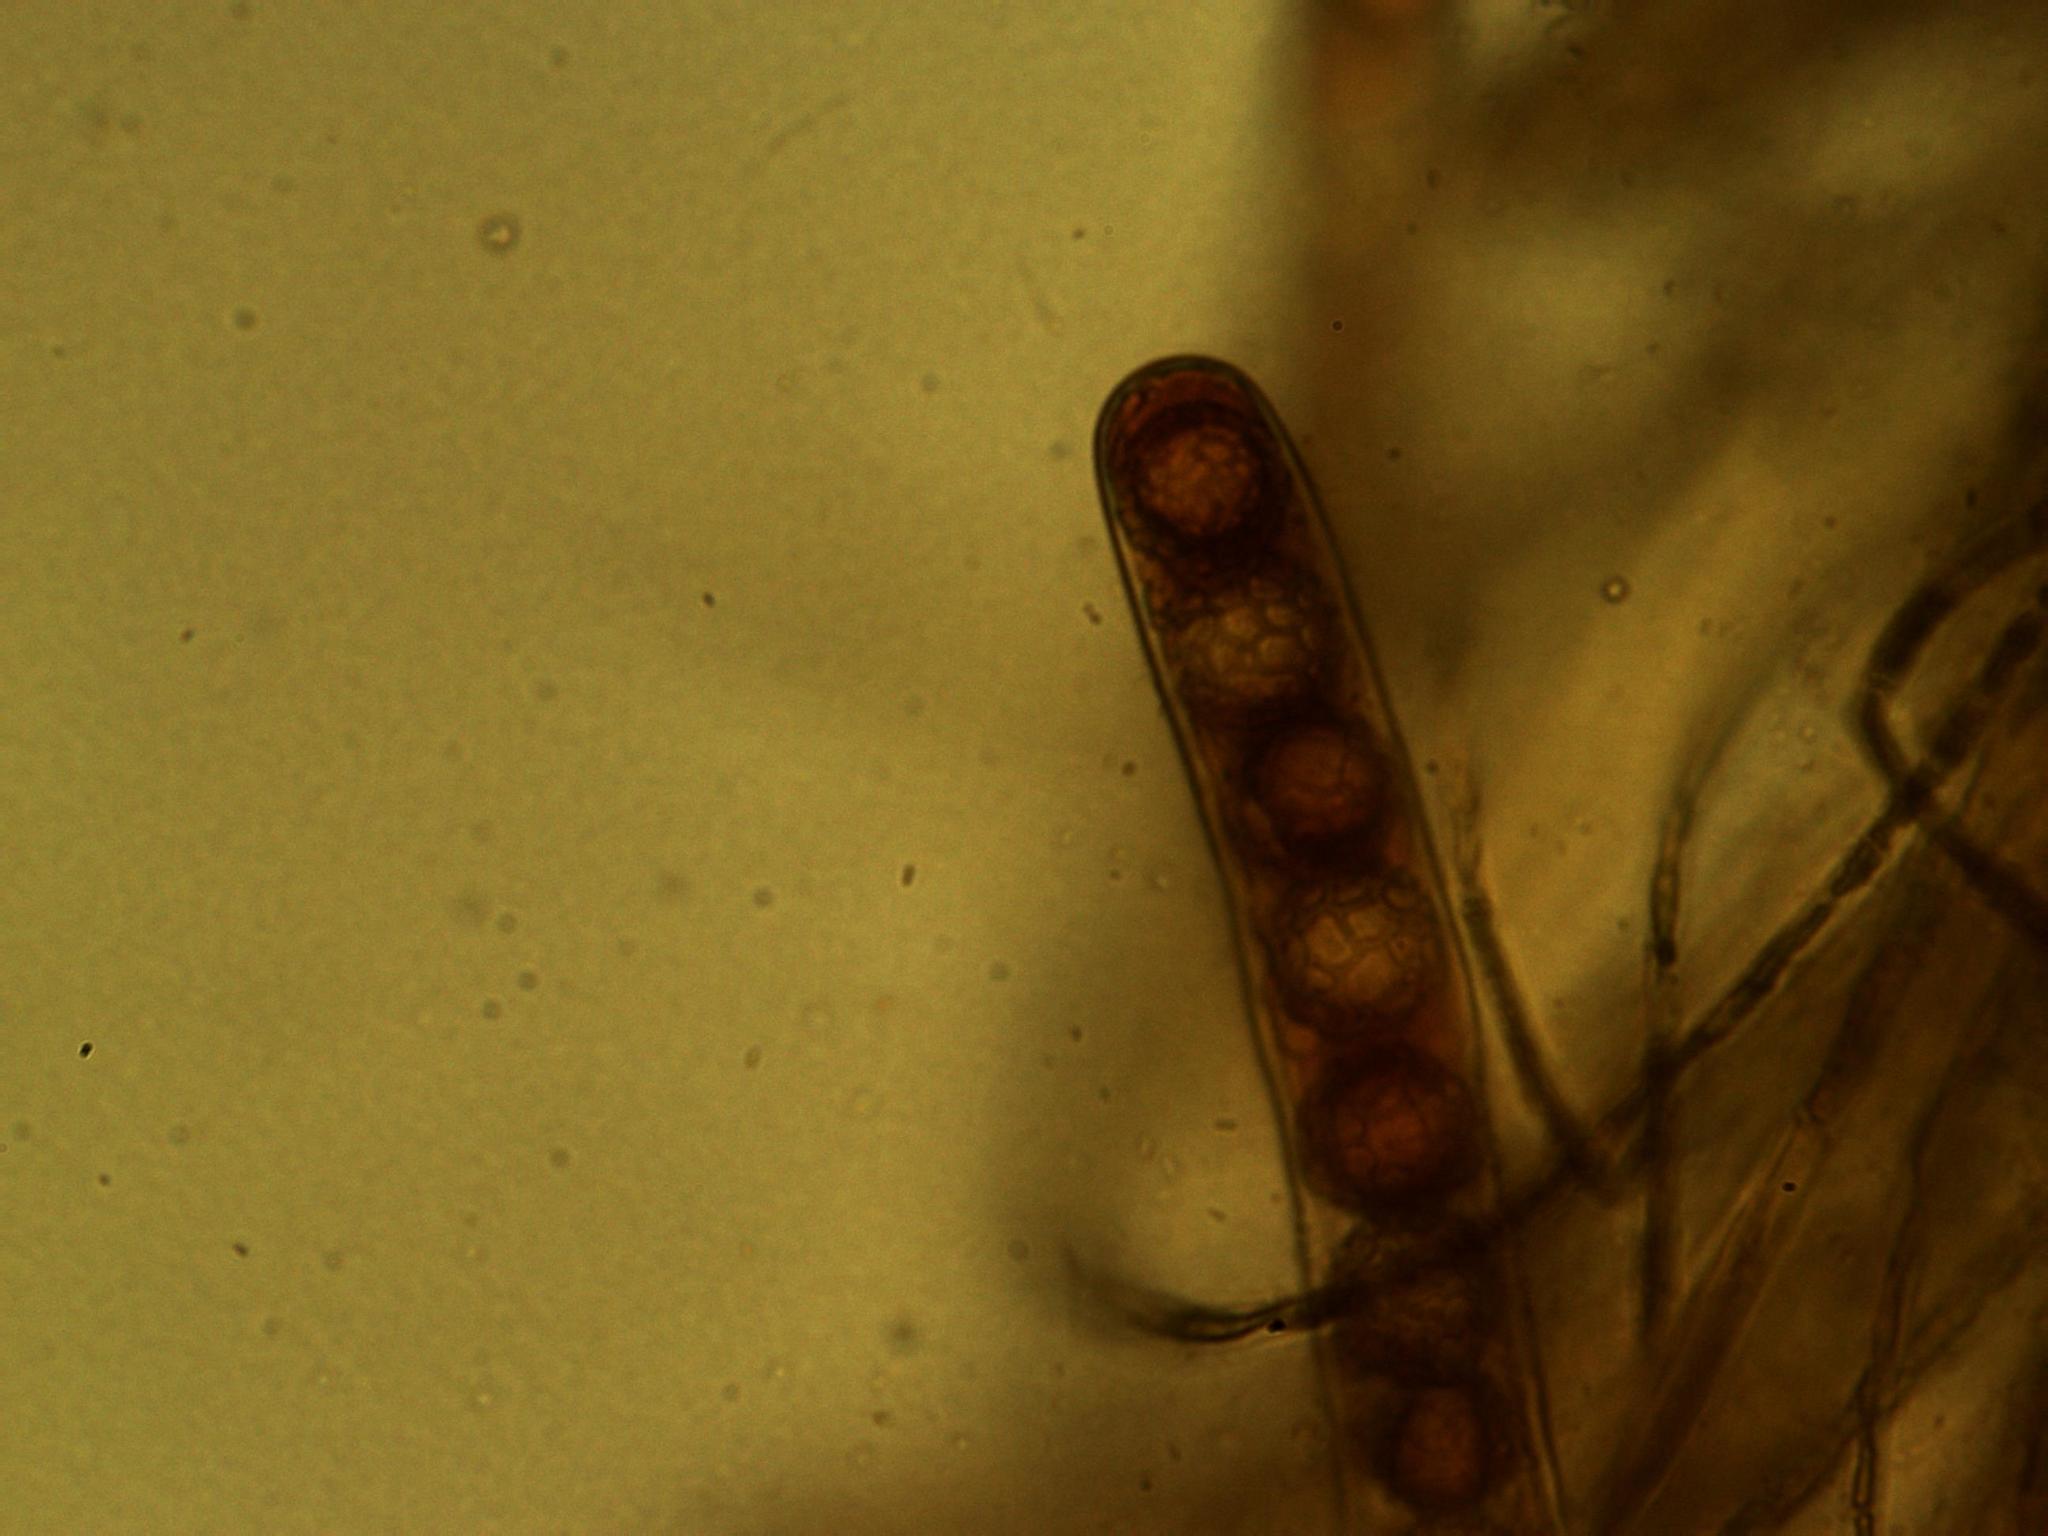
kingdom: Fungi
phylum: Ascomycota
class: Pezizomycetes
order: Pezizales
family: Pyronemataceae
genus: Octospora
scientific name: Octospora feurichiana
